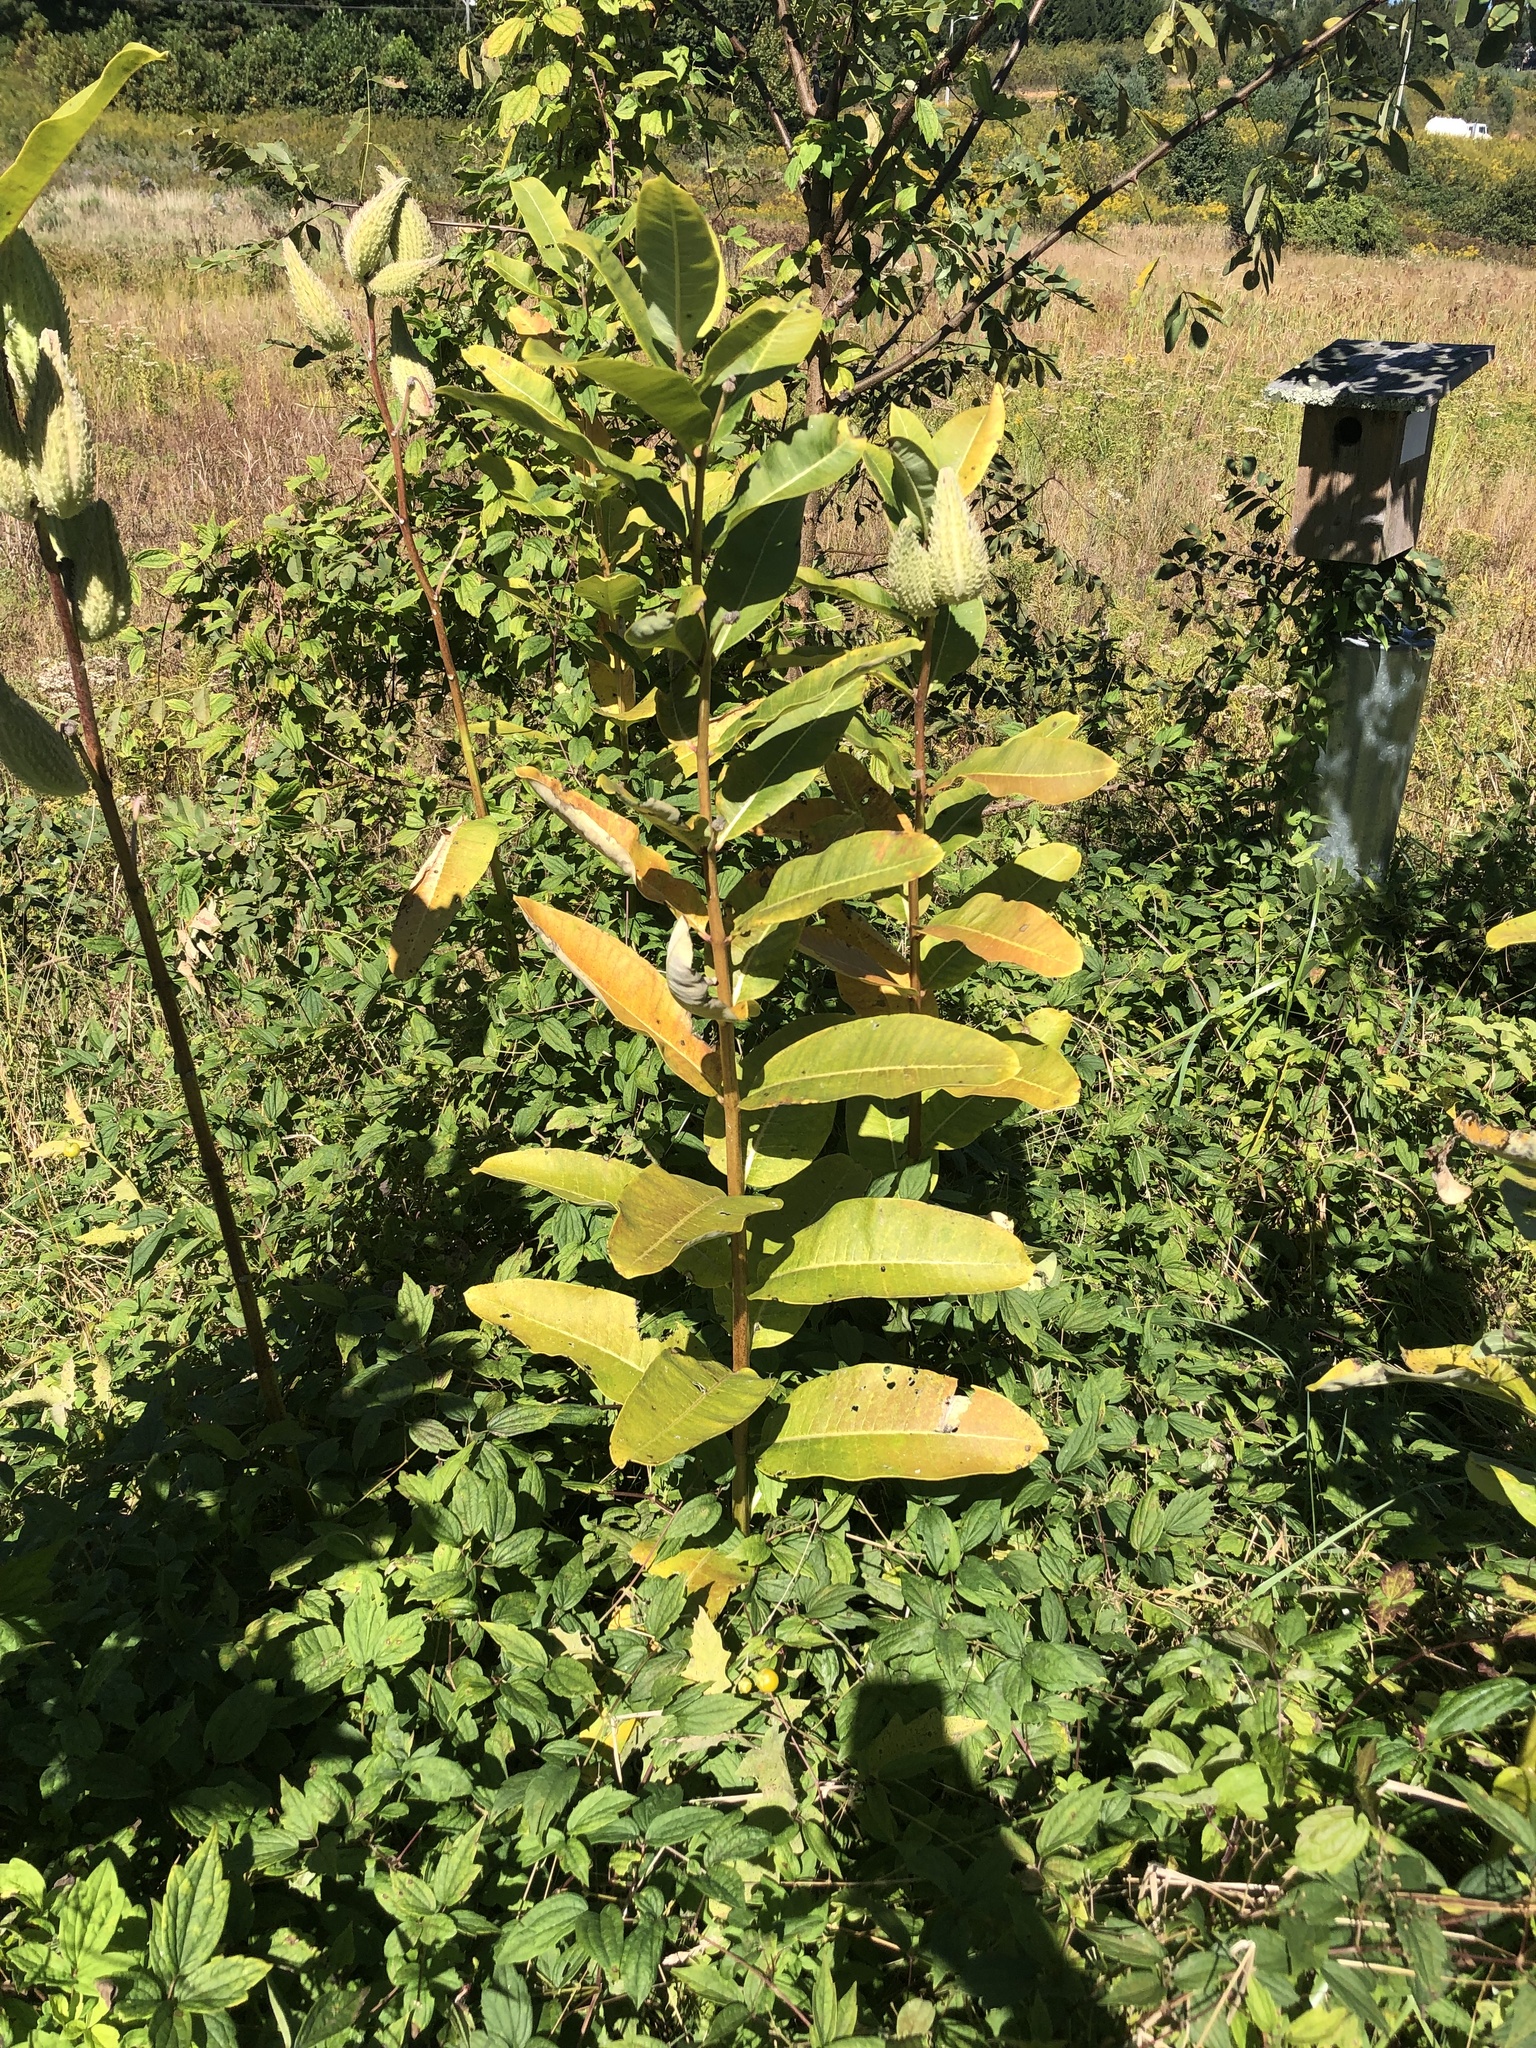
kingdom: Plantae
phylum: Tracheophyta
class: Magnoliopsida
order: Gentianales
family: Apocynaceae
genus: Asclepias
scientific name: Asclepias syriaca
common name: Common milkweed
